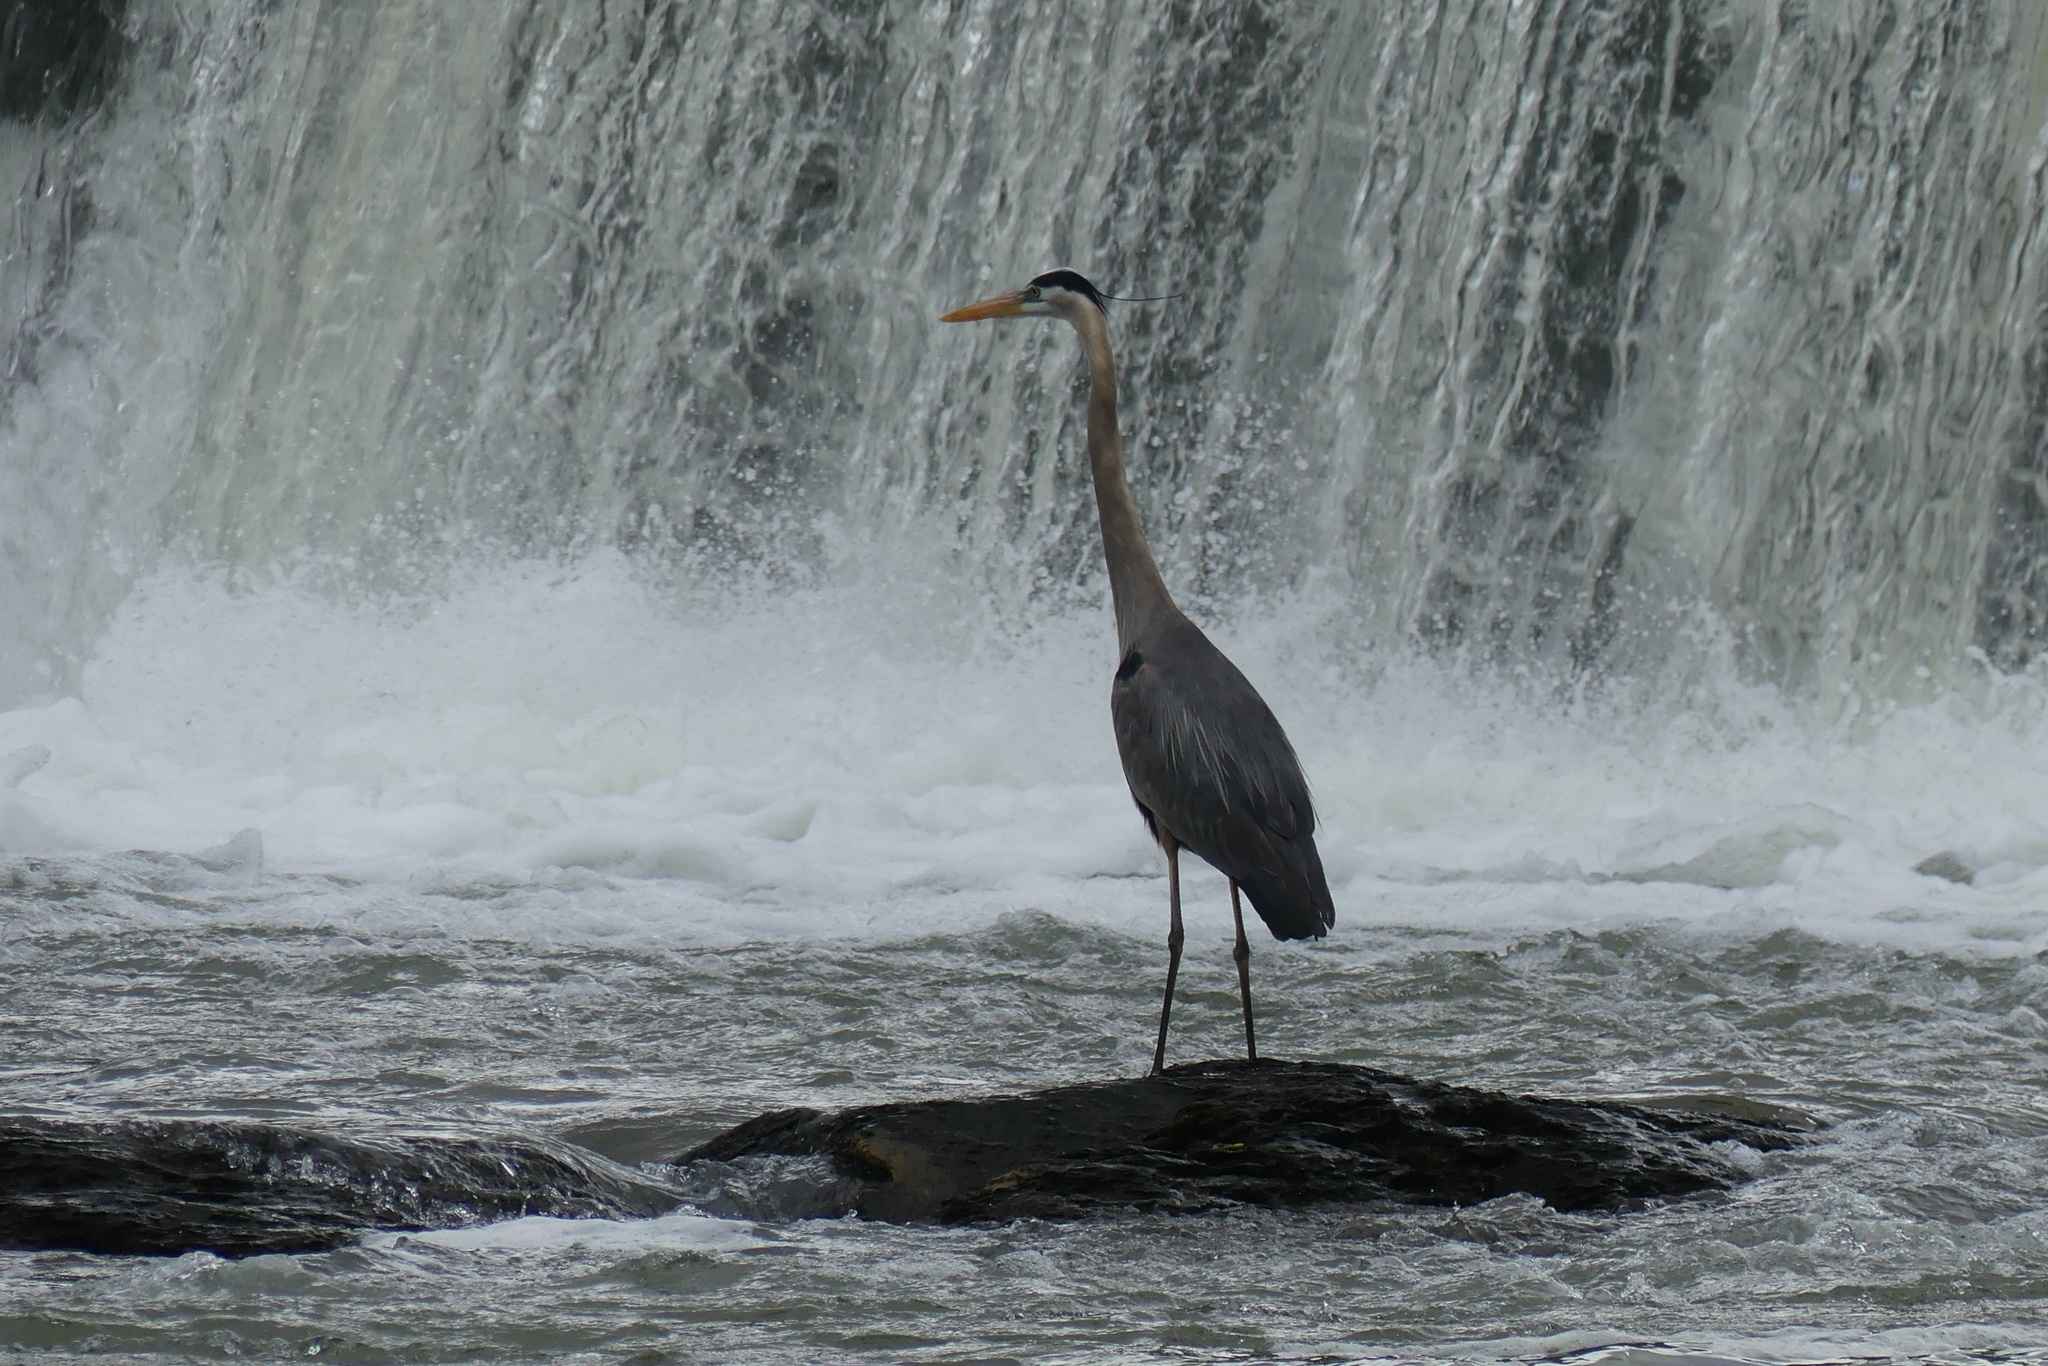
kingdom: Animalia
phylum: Chordata
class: Aves
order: Pelecaniformes
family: Ardeidae
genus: Ardea
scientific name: Ardea herodias
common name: Great blue heron
